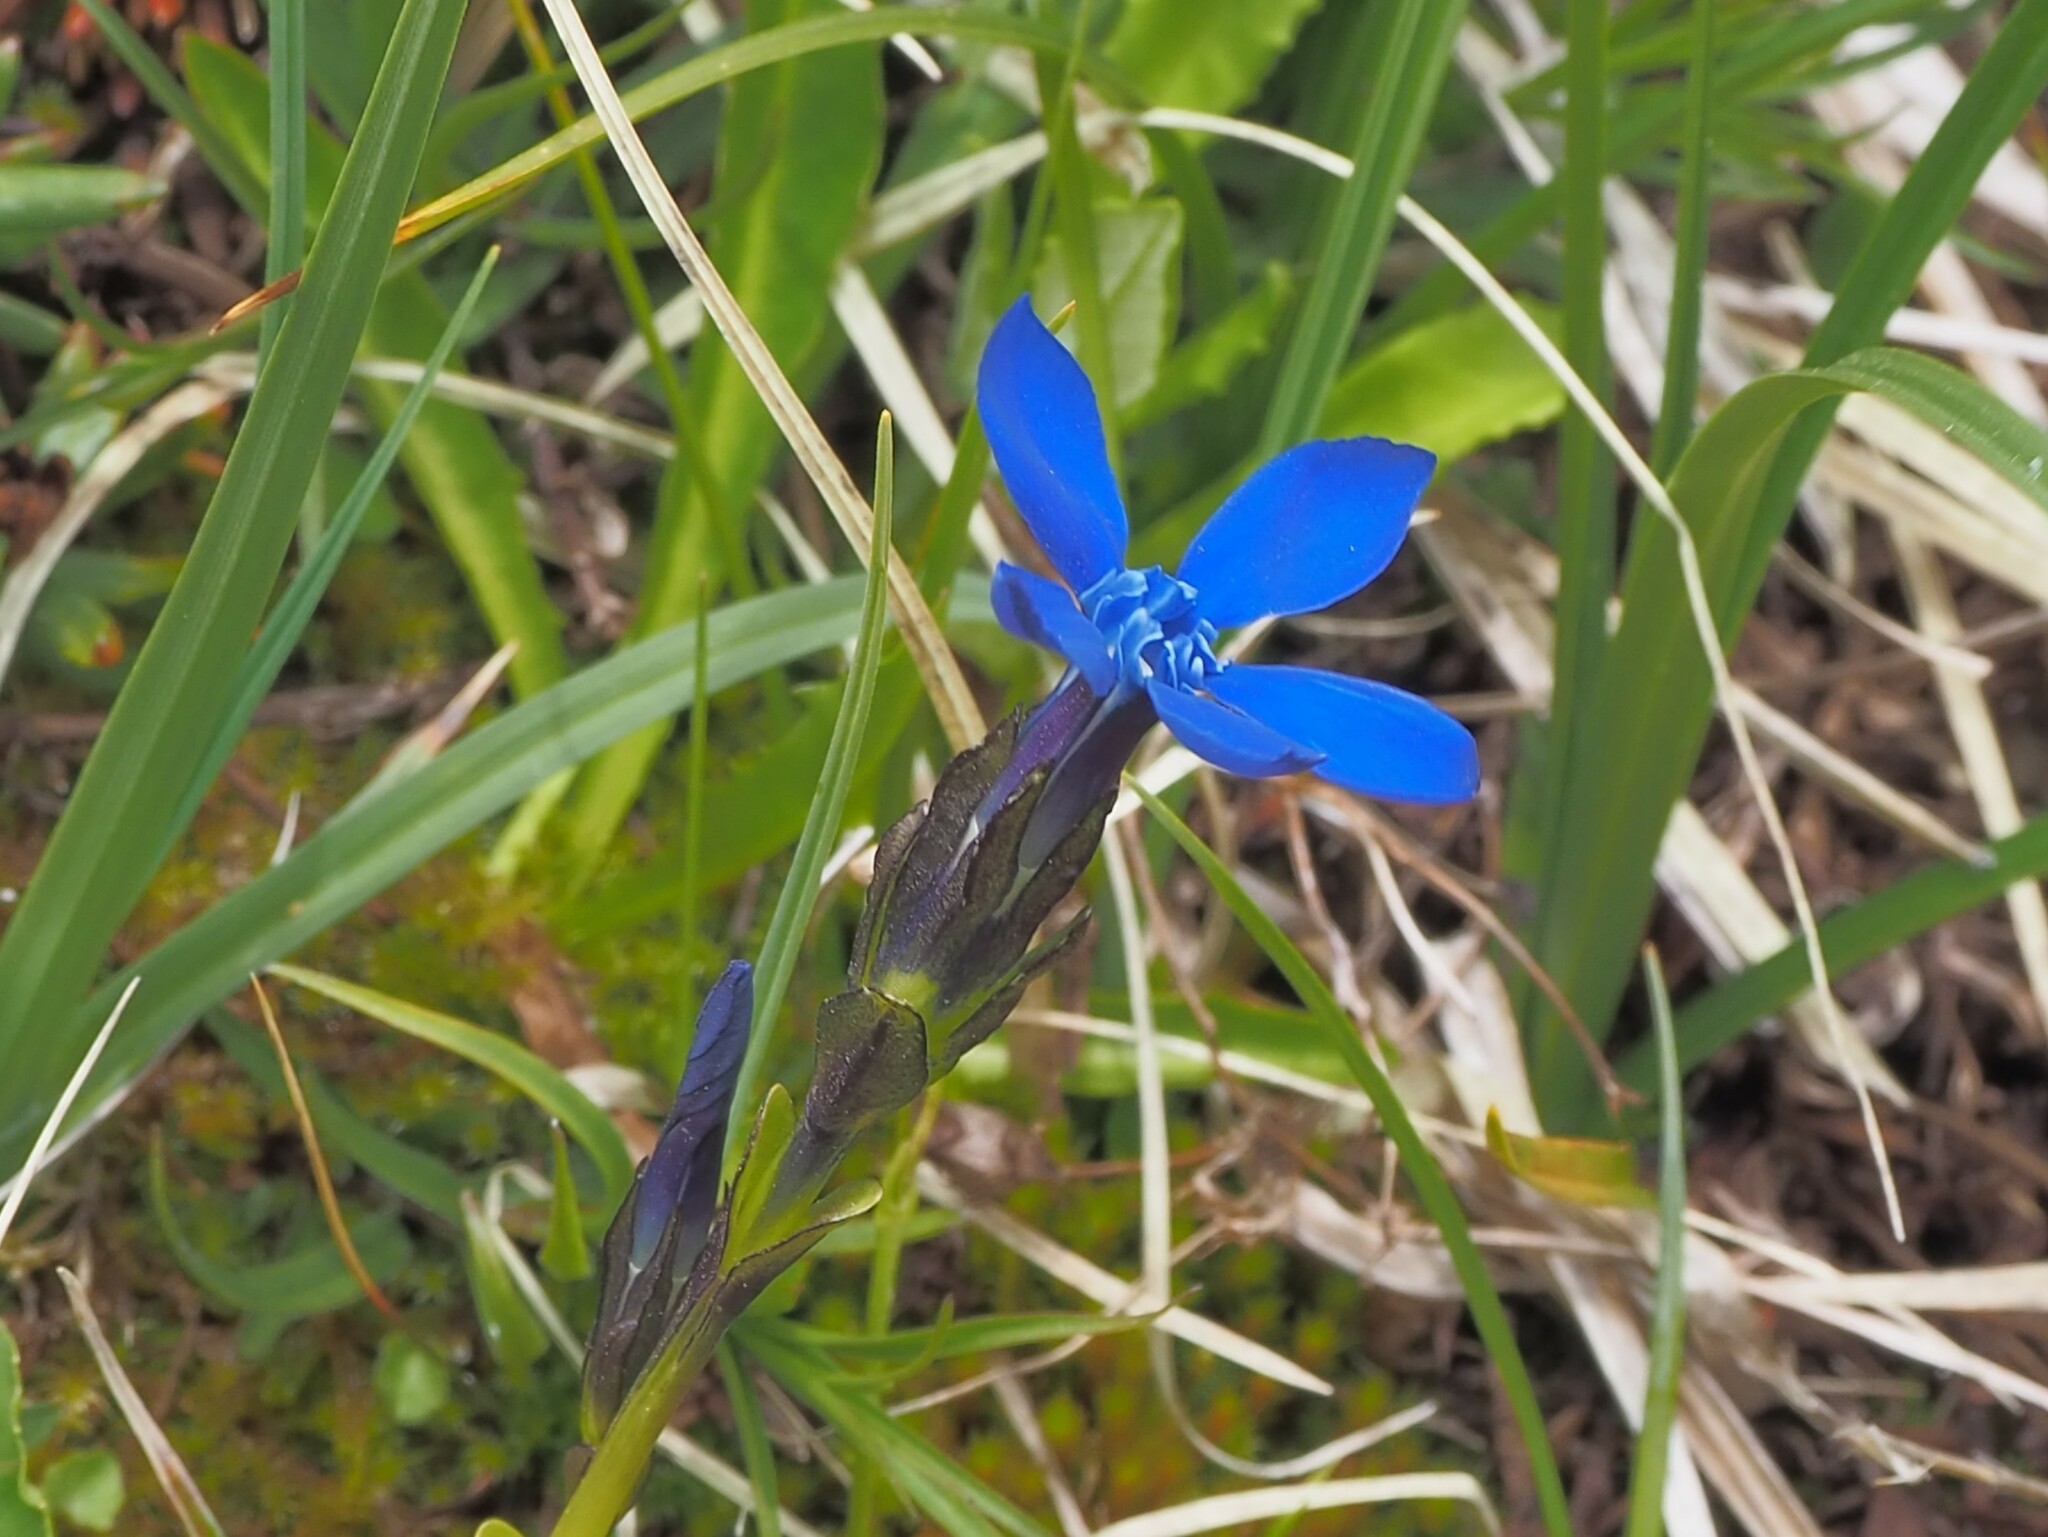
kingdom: Plantae
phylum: Tracheophyta
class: Magnoliopsida
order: Gentianales
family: Gentianaceae
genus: Gentiana
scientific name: Gentiana bavarica
